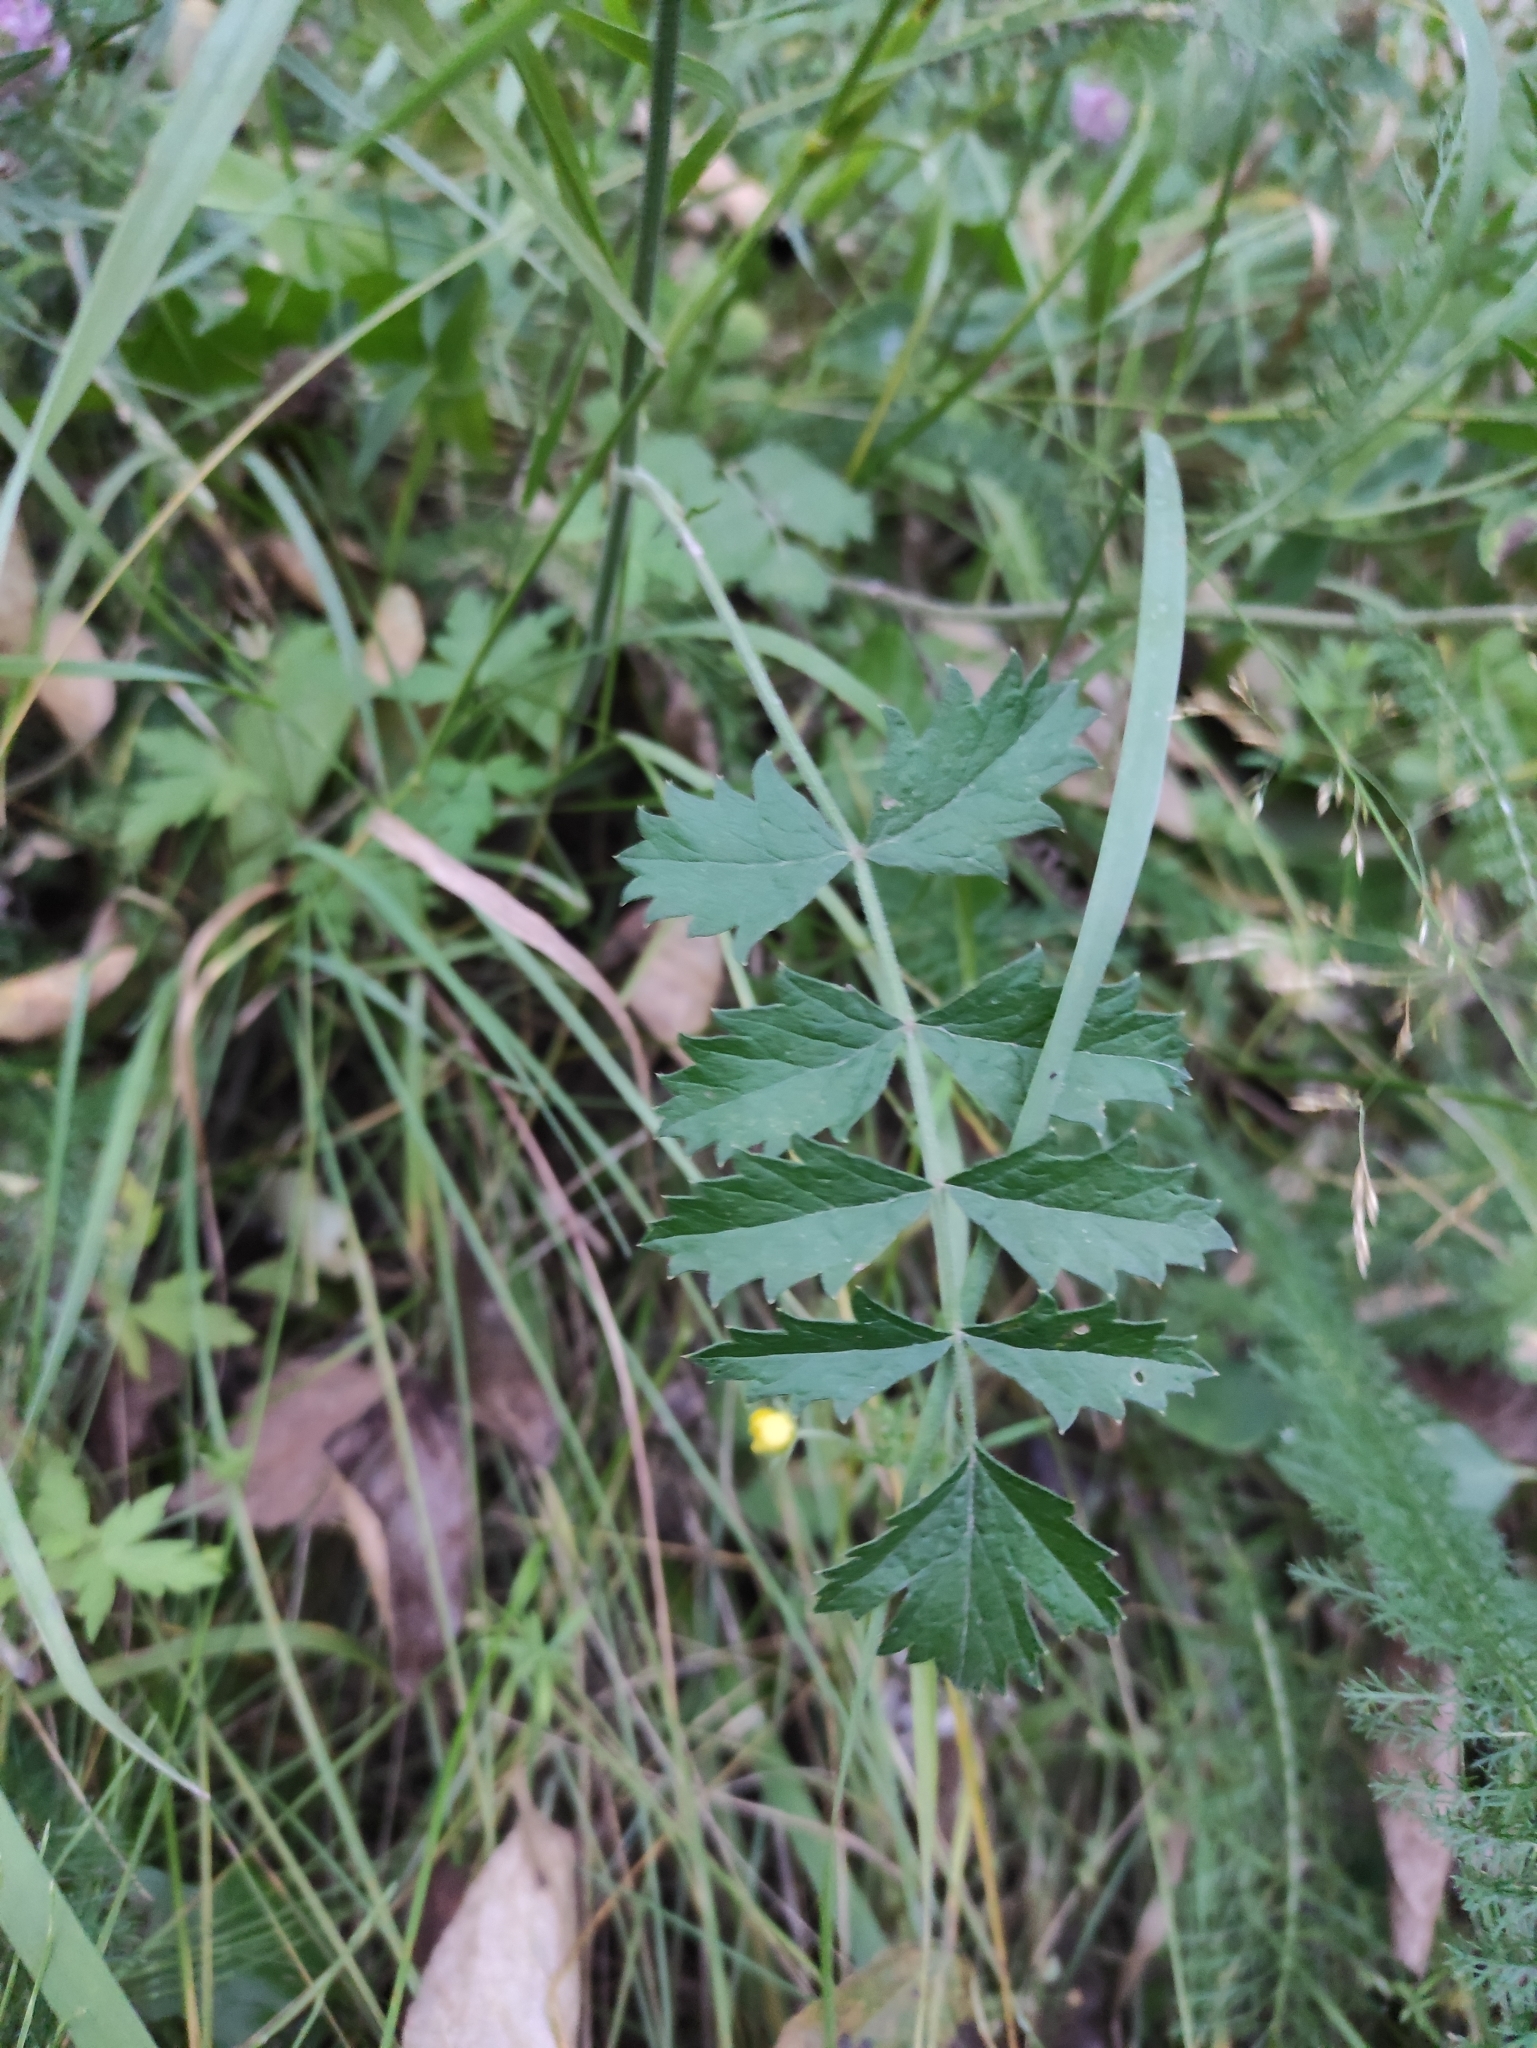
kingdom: Plantae
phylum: Tracheophyta
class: Magnoliopsida
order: Apiales
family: Apiaceae
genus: Pimpinella
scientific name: Pimpinella saxifraga
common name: Burnet-saxifrage
